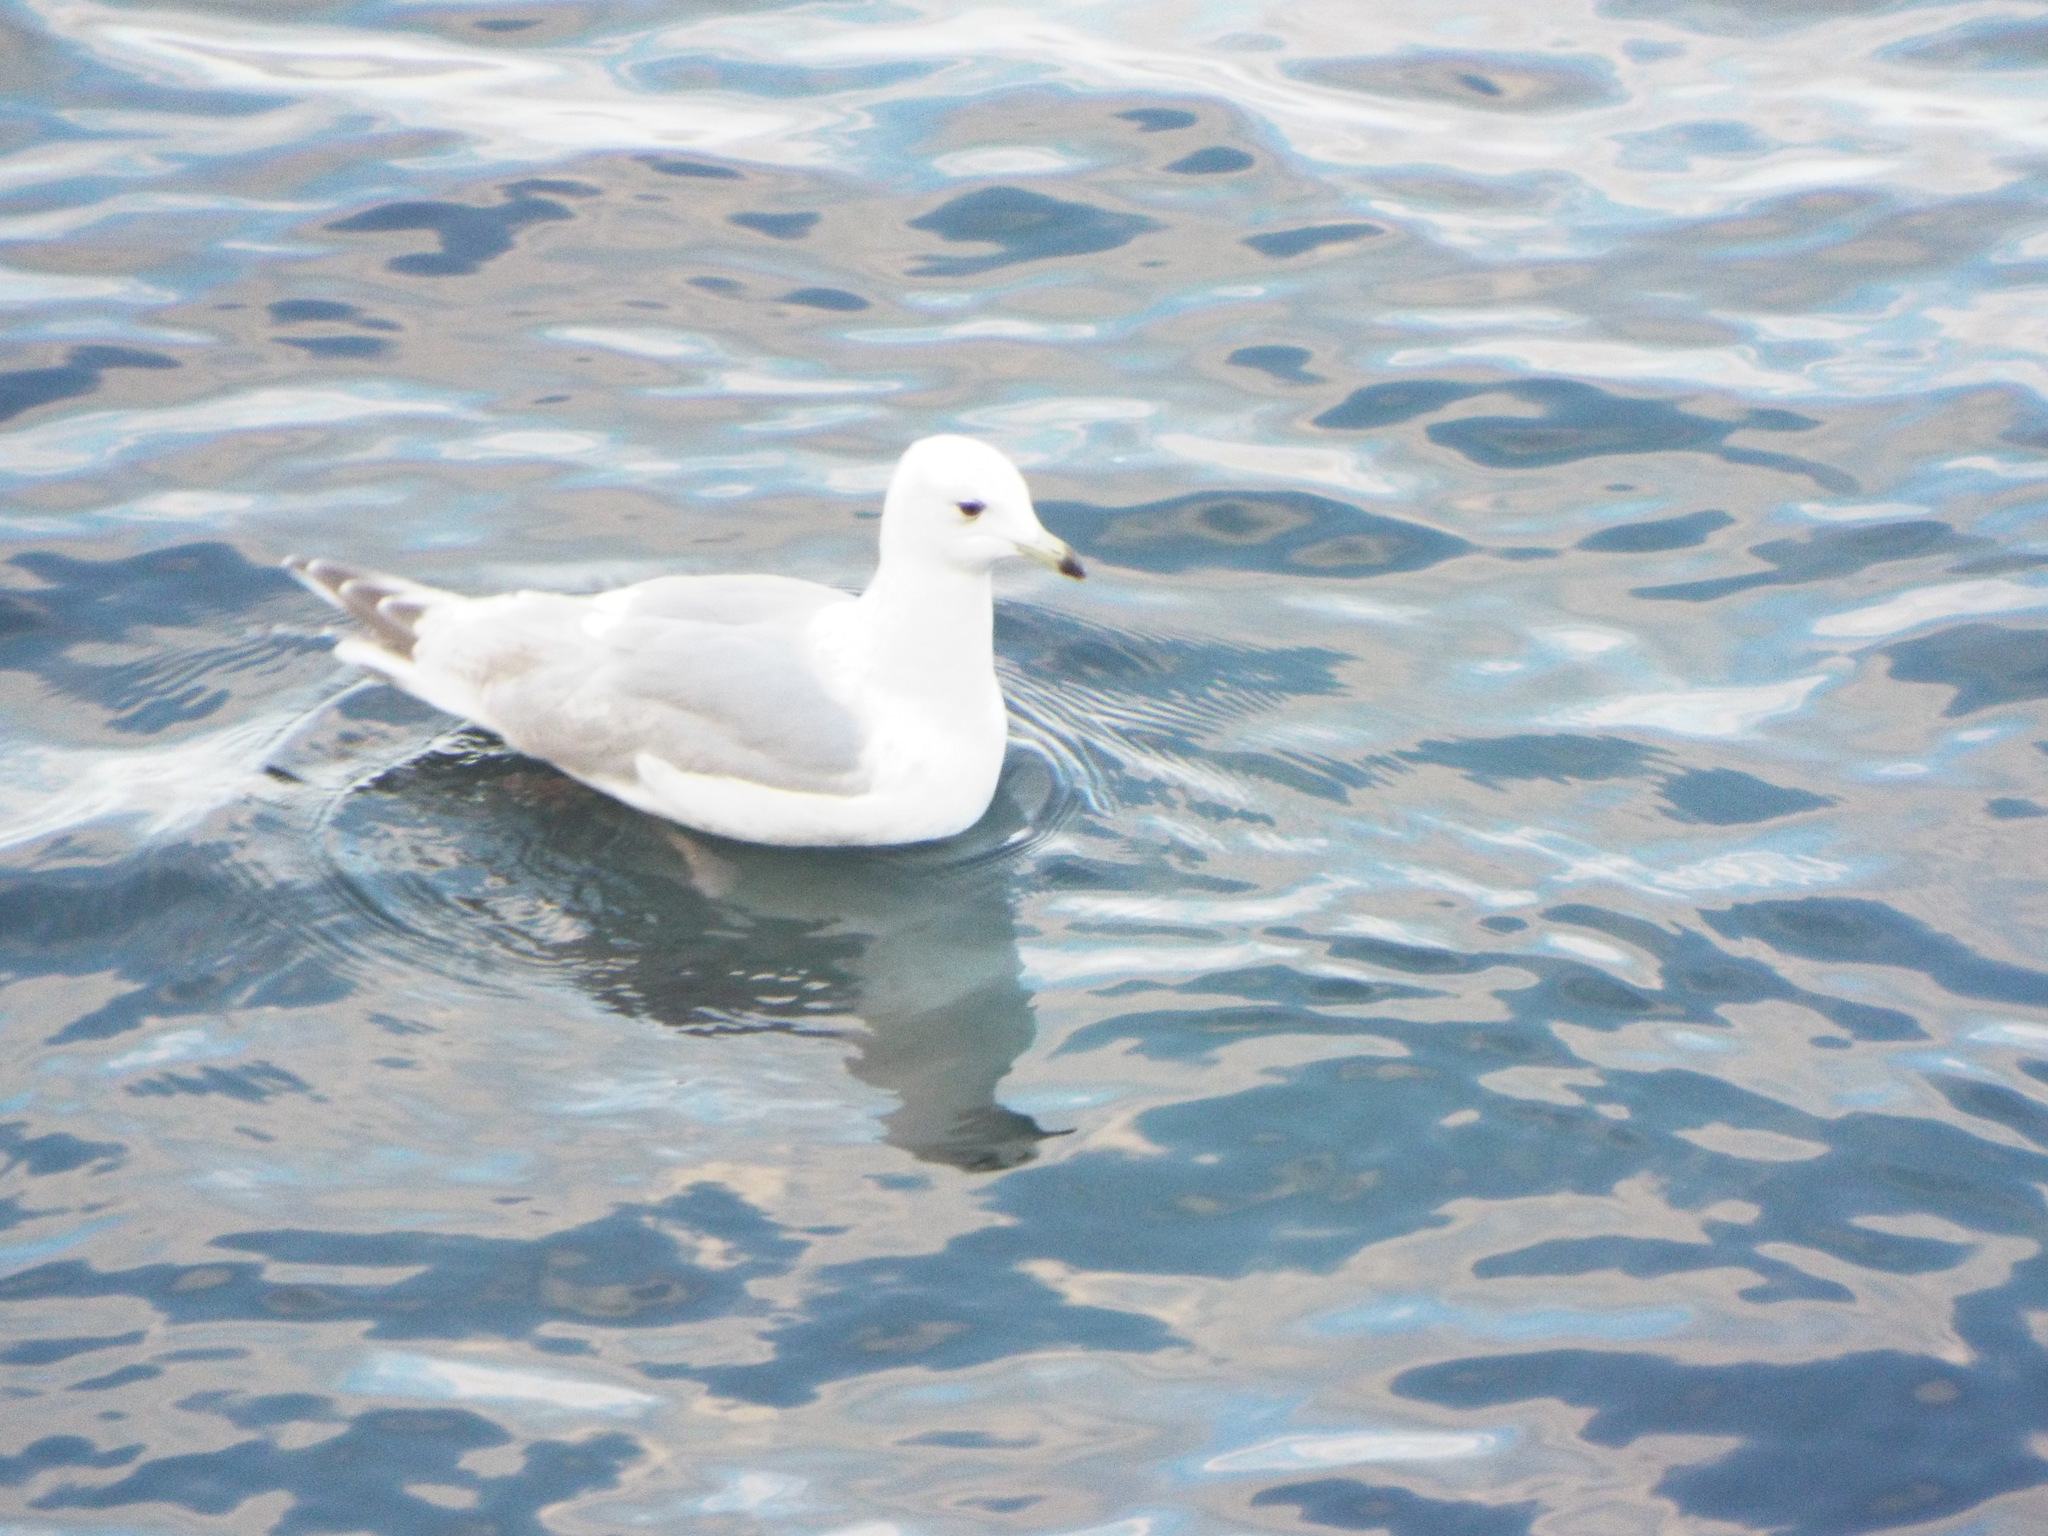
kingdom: Animalia
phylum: Chordata
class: Aves
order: Charadriiformes
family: Laridae
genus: Larus
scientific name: Larus glaucoides
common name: Iceland gull
